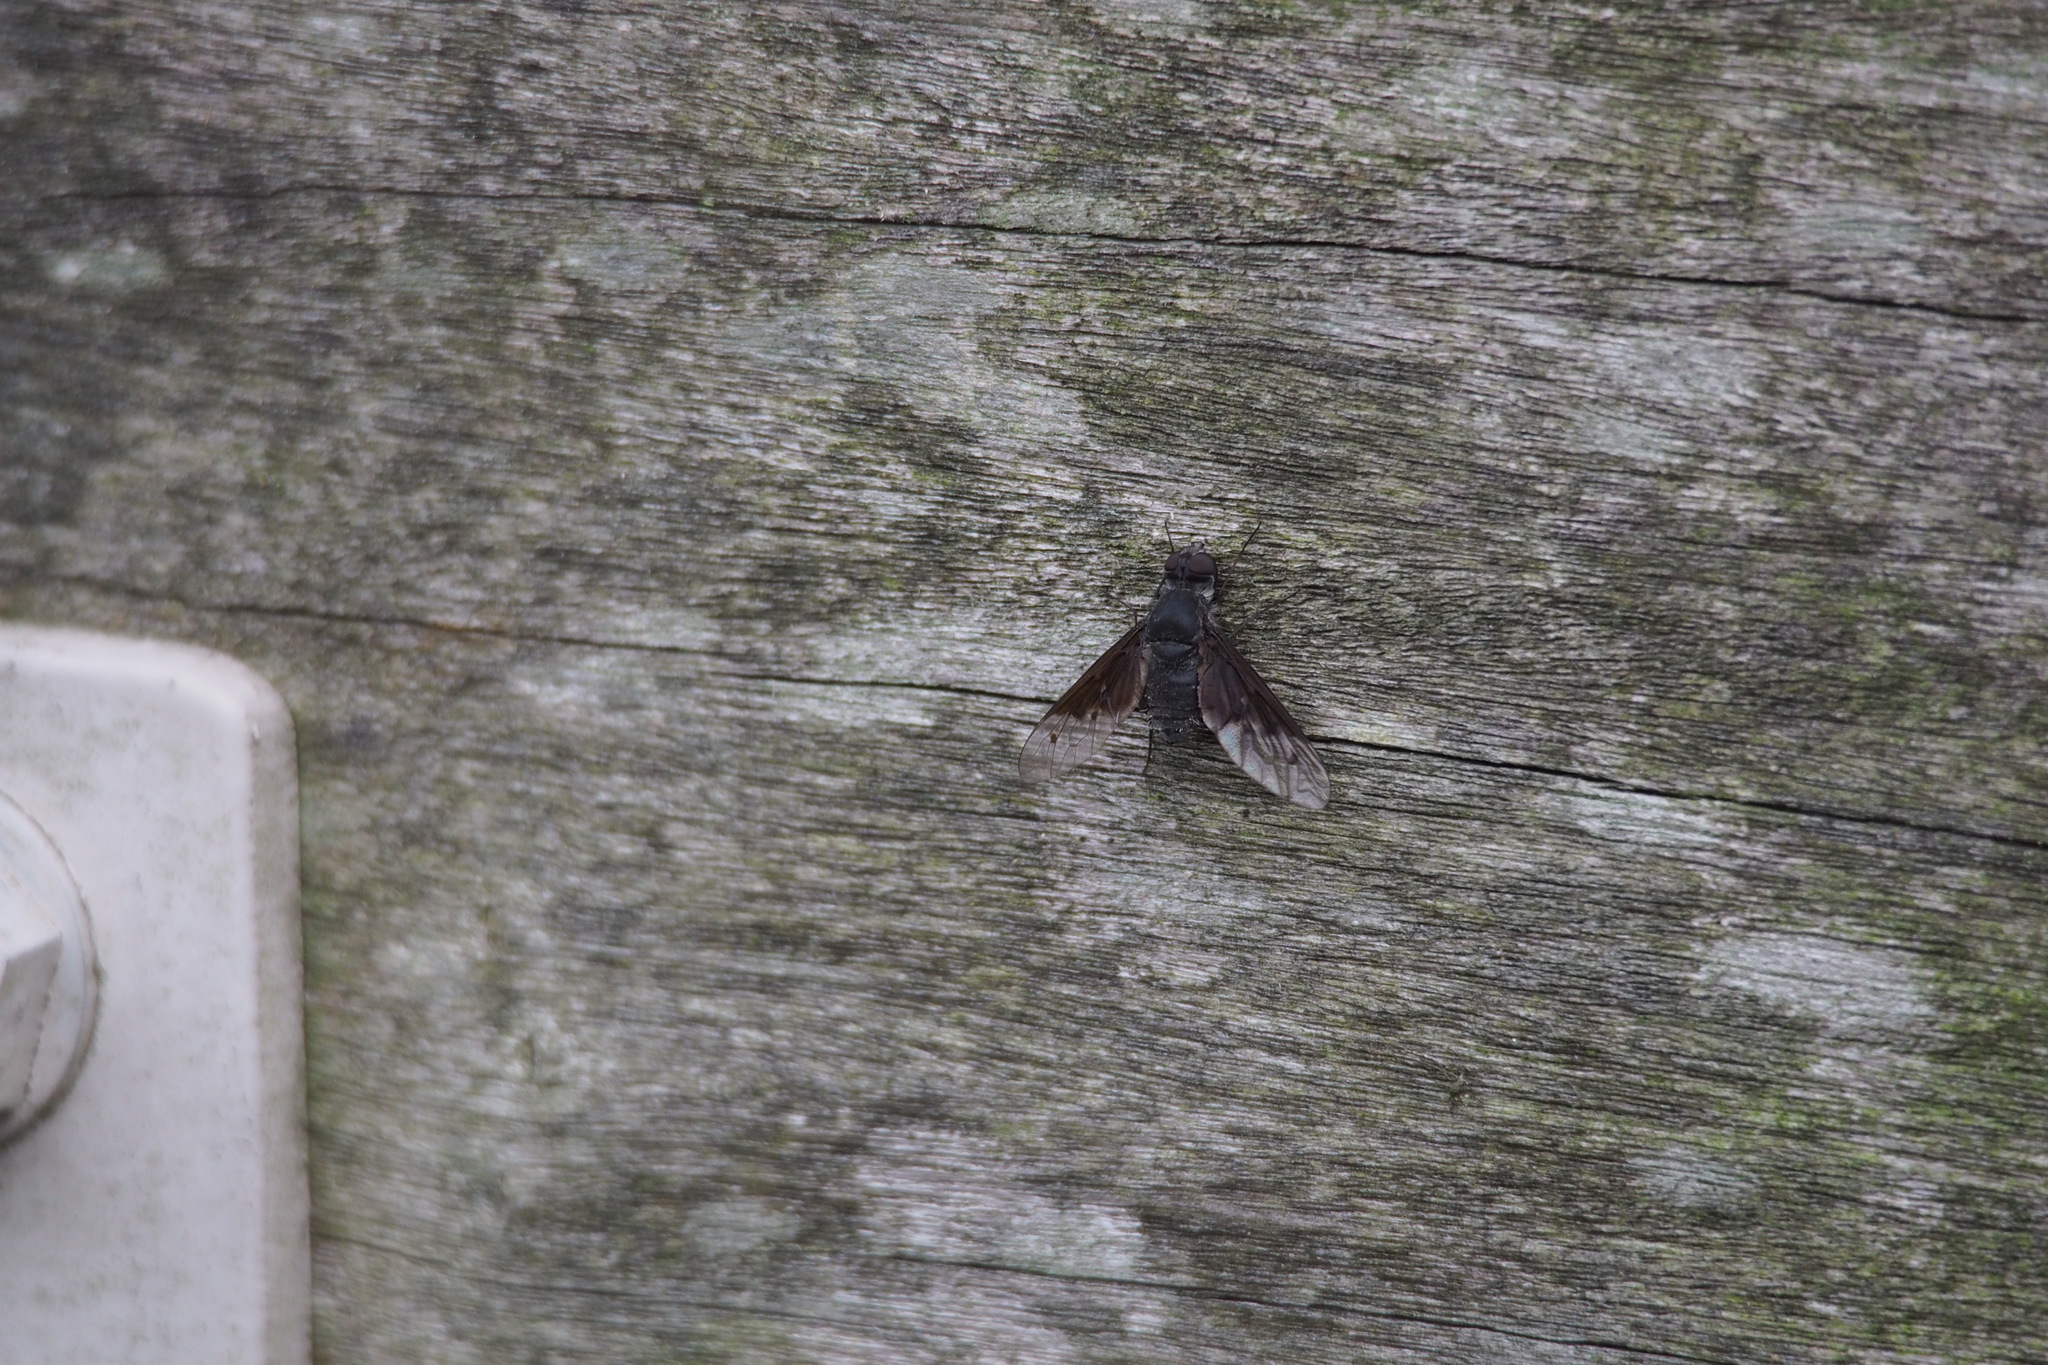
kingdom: Animalia
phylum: Arthropoda
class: Insecta
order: Diptera
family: Bombyliidae
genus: Anthrax
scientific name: Anthrax aygulus
